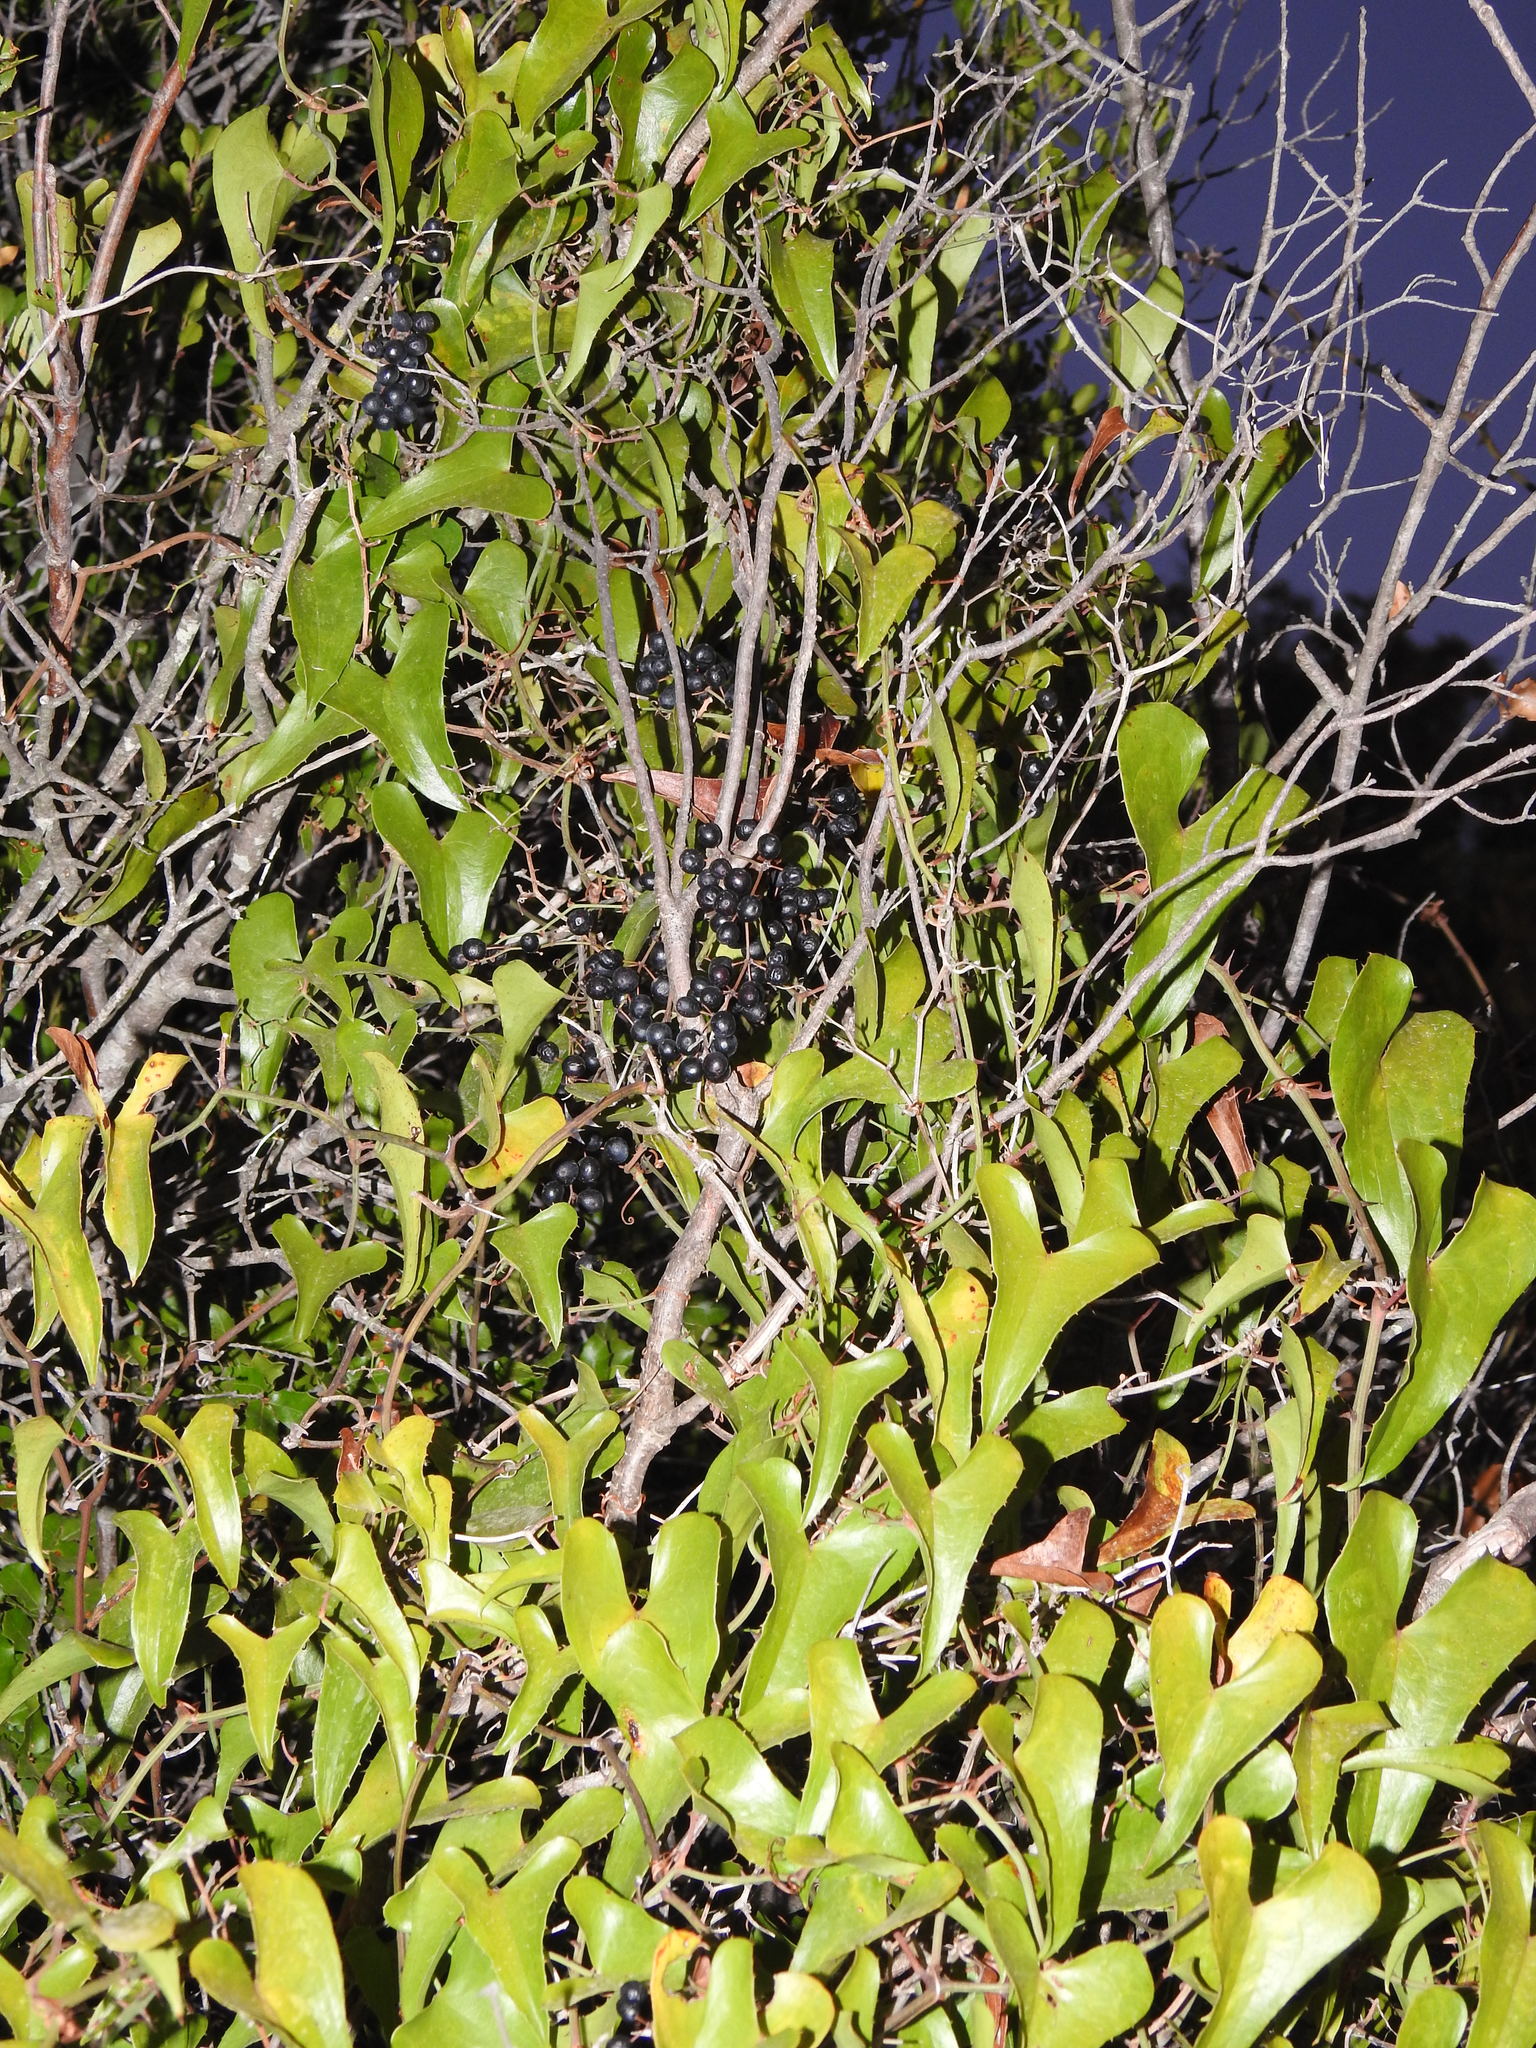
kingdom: Plantae
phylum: Tracheophyta
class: Liliopsida
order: Liliales
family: Smilacaceae
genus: Smilax
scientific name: Smilax aspera
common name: Common smilax
